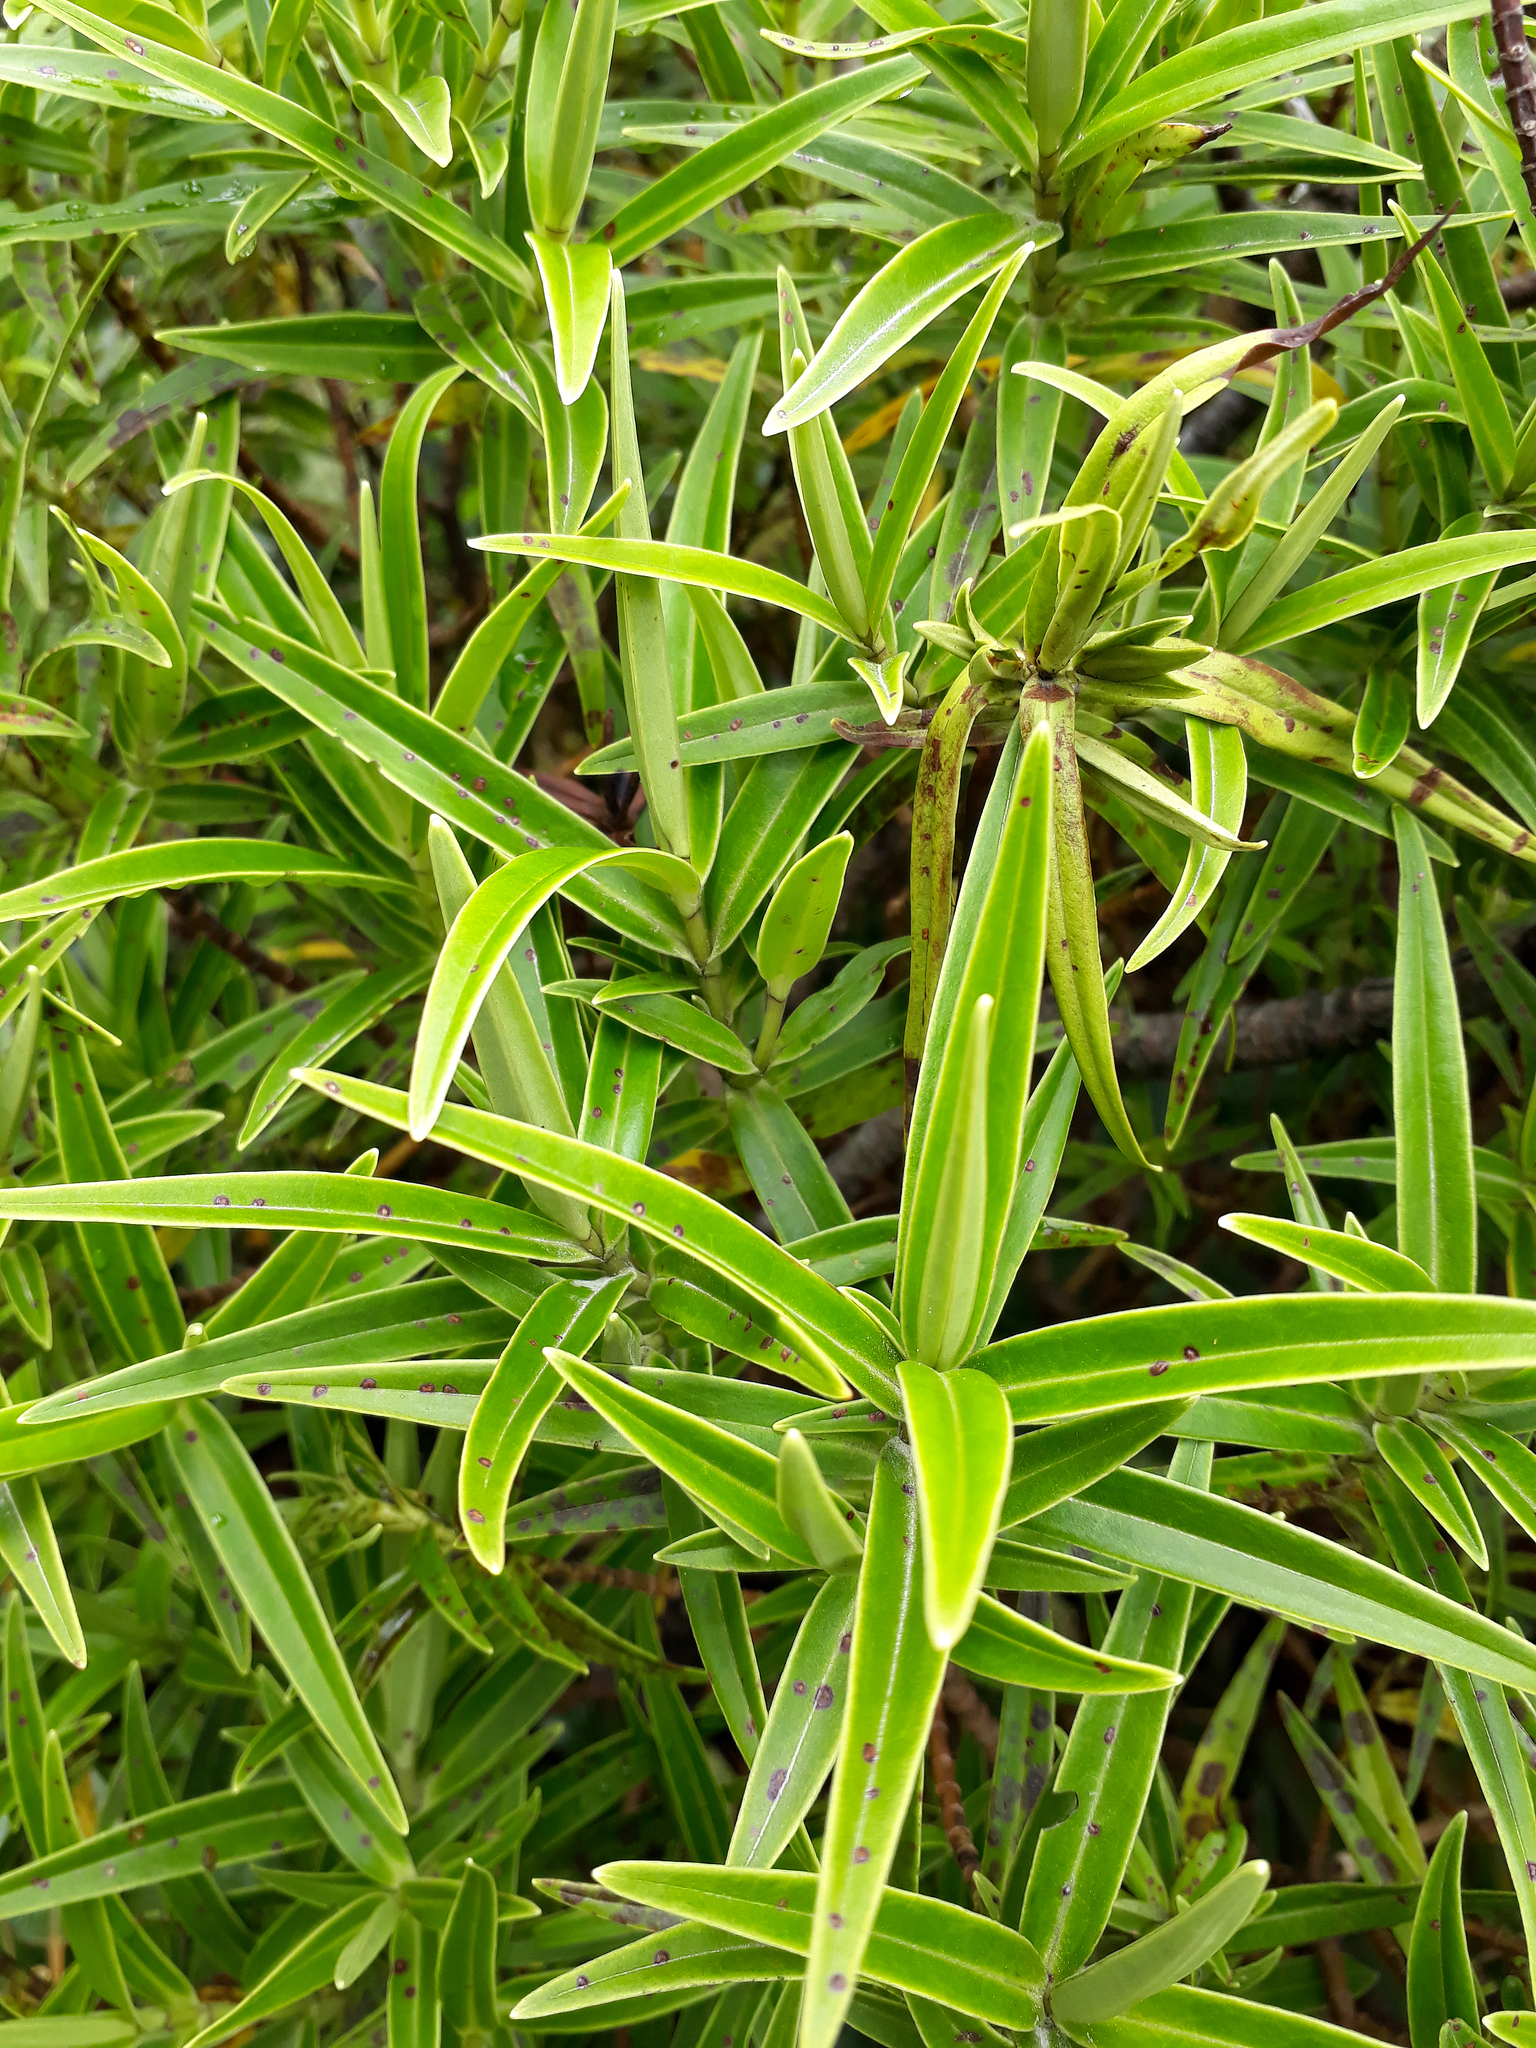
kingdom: Plantae
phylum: Tracheophyta
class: Magnoliopsida
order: Lamiales
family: Plantaginaceae
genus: Veronica
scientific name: Veronica stricta
